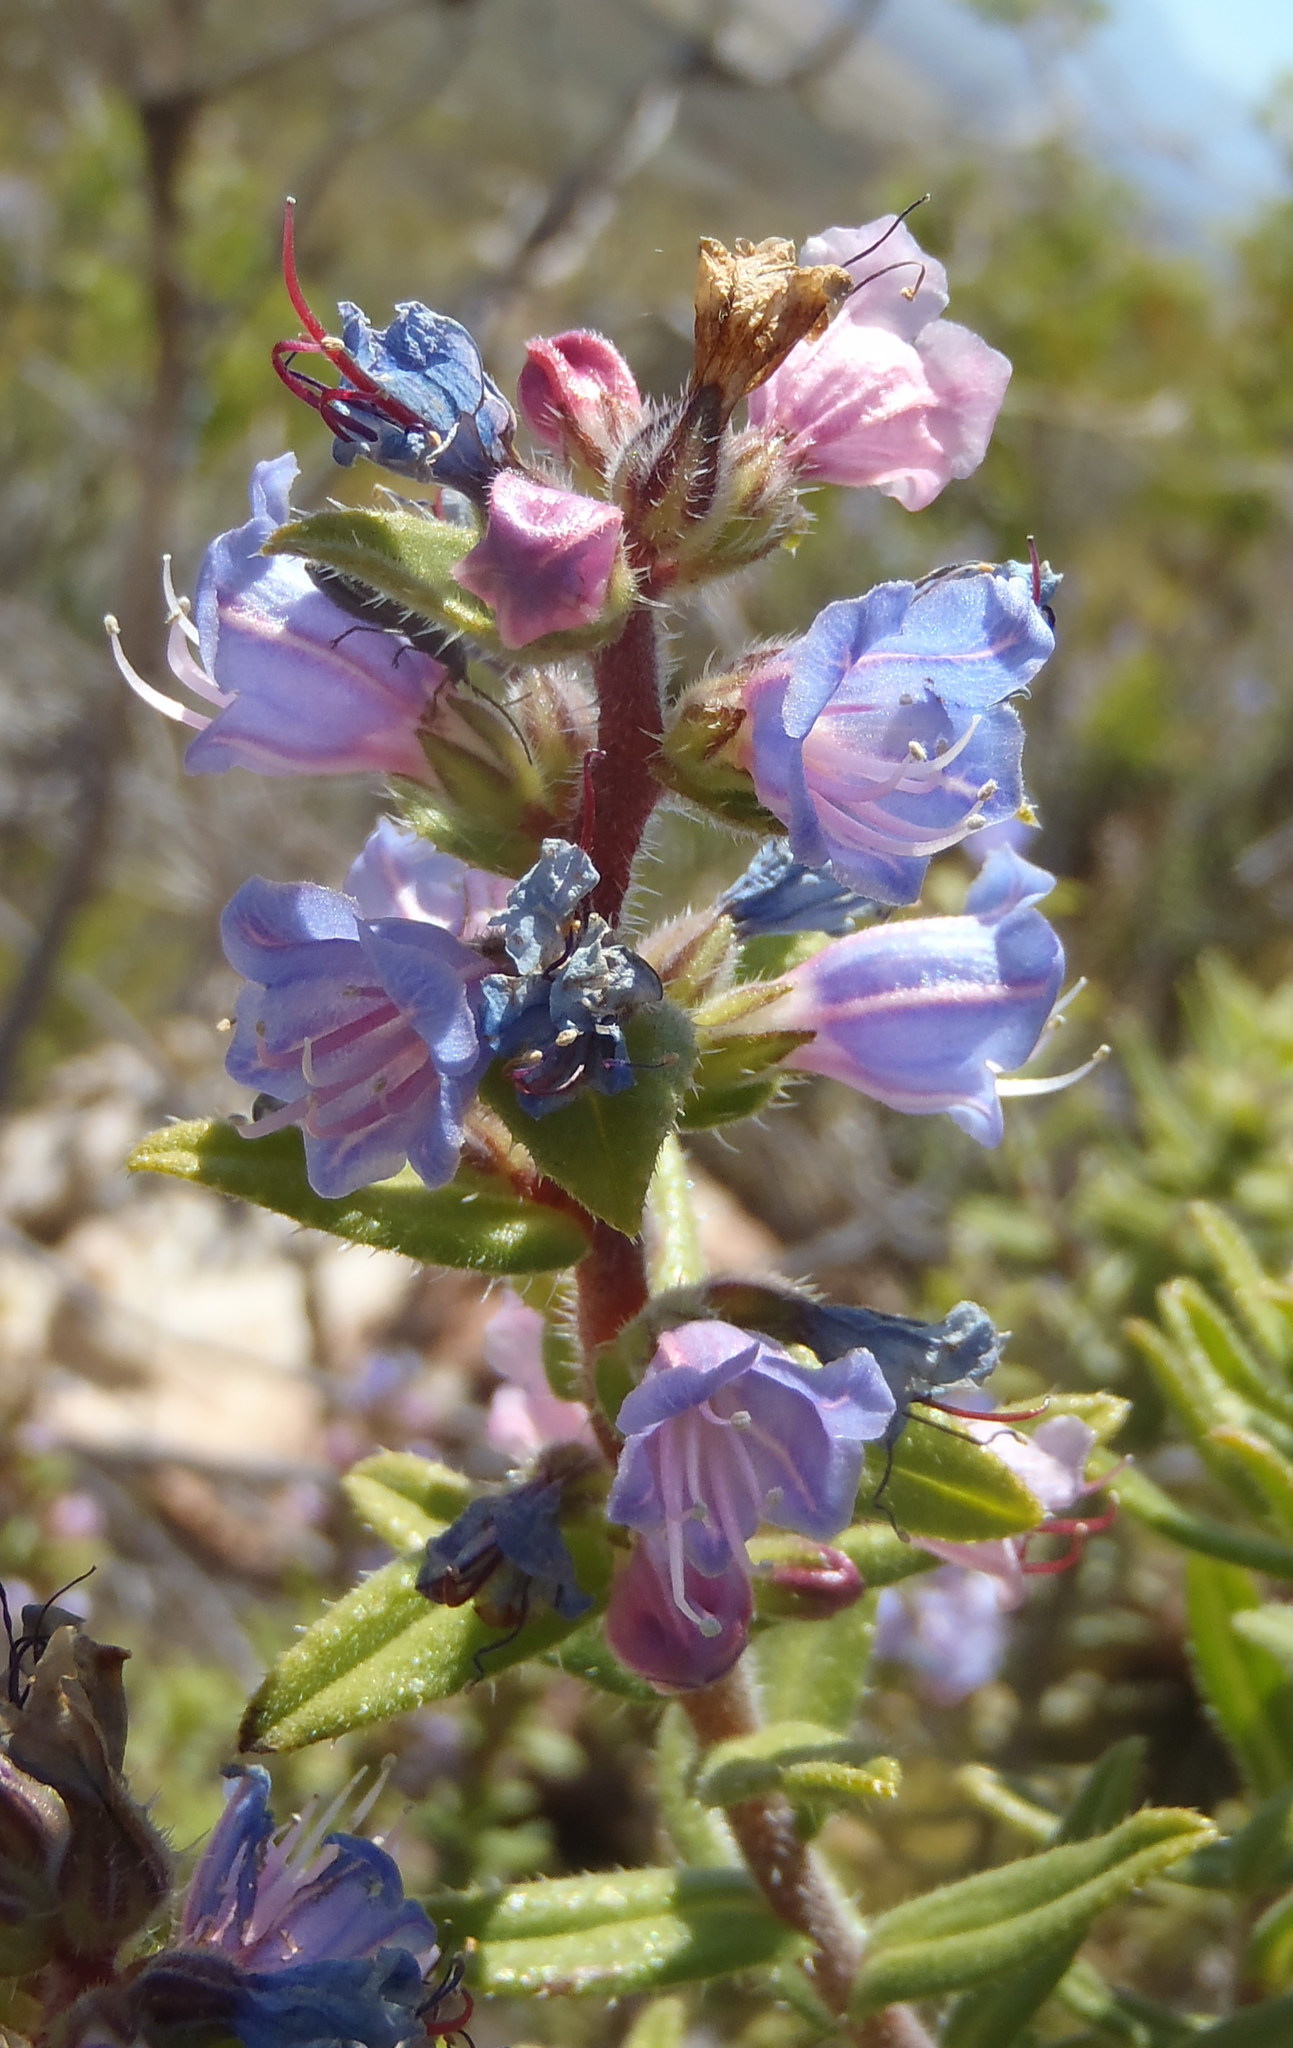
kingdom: Plantae
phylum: Tracheophyta
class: Magnoliopsida
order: Boraginales
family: Boraginaceae
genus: Lobostemon
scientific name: Lobostemon stachydeus
